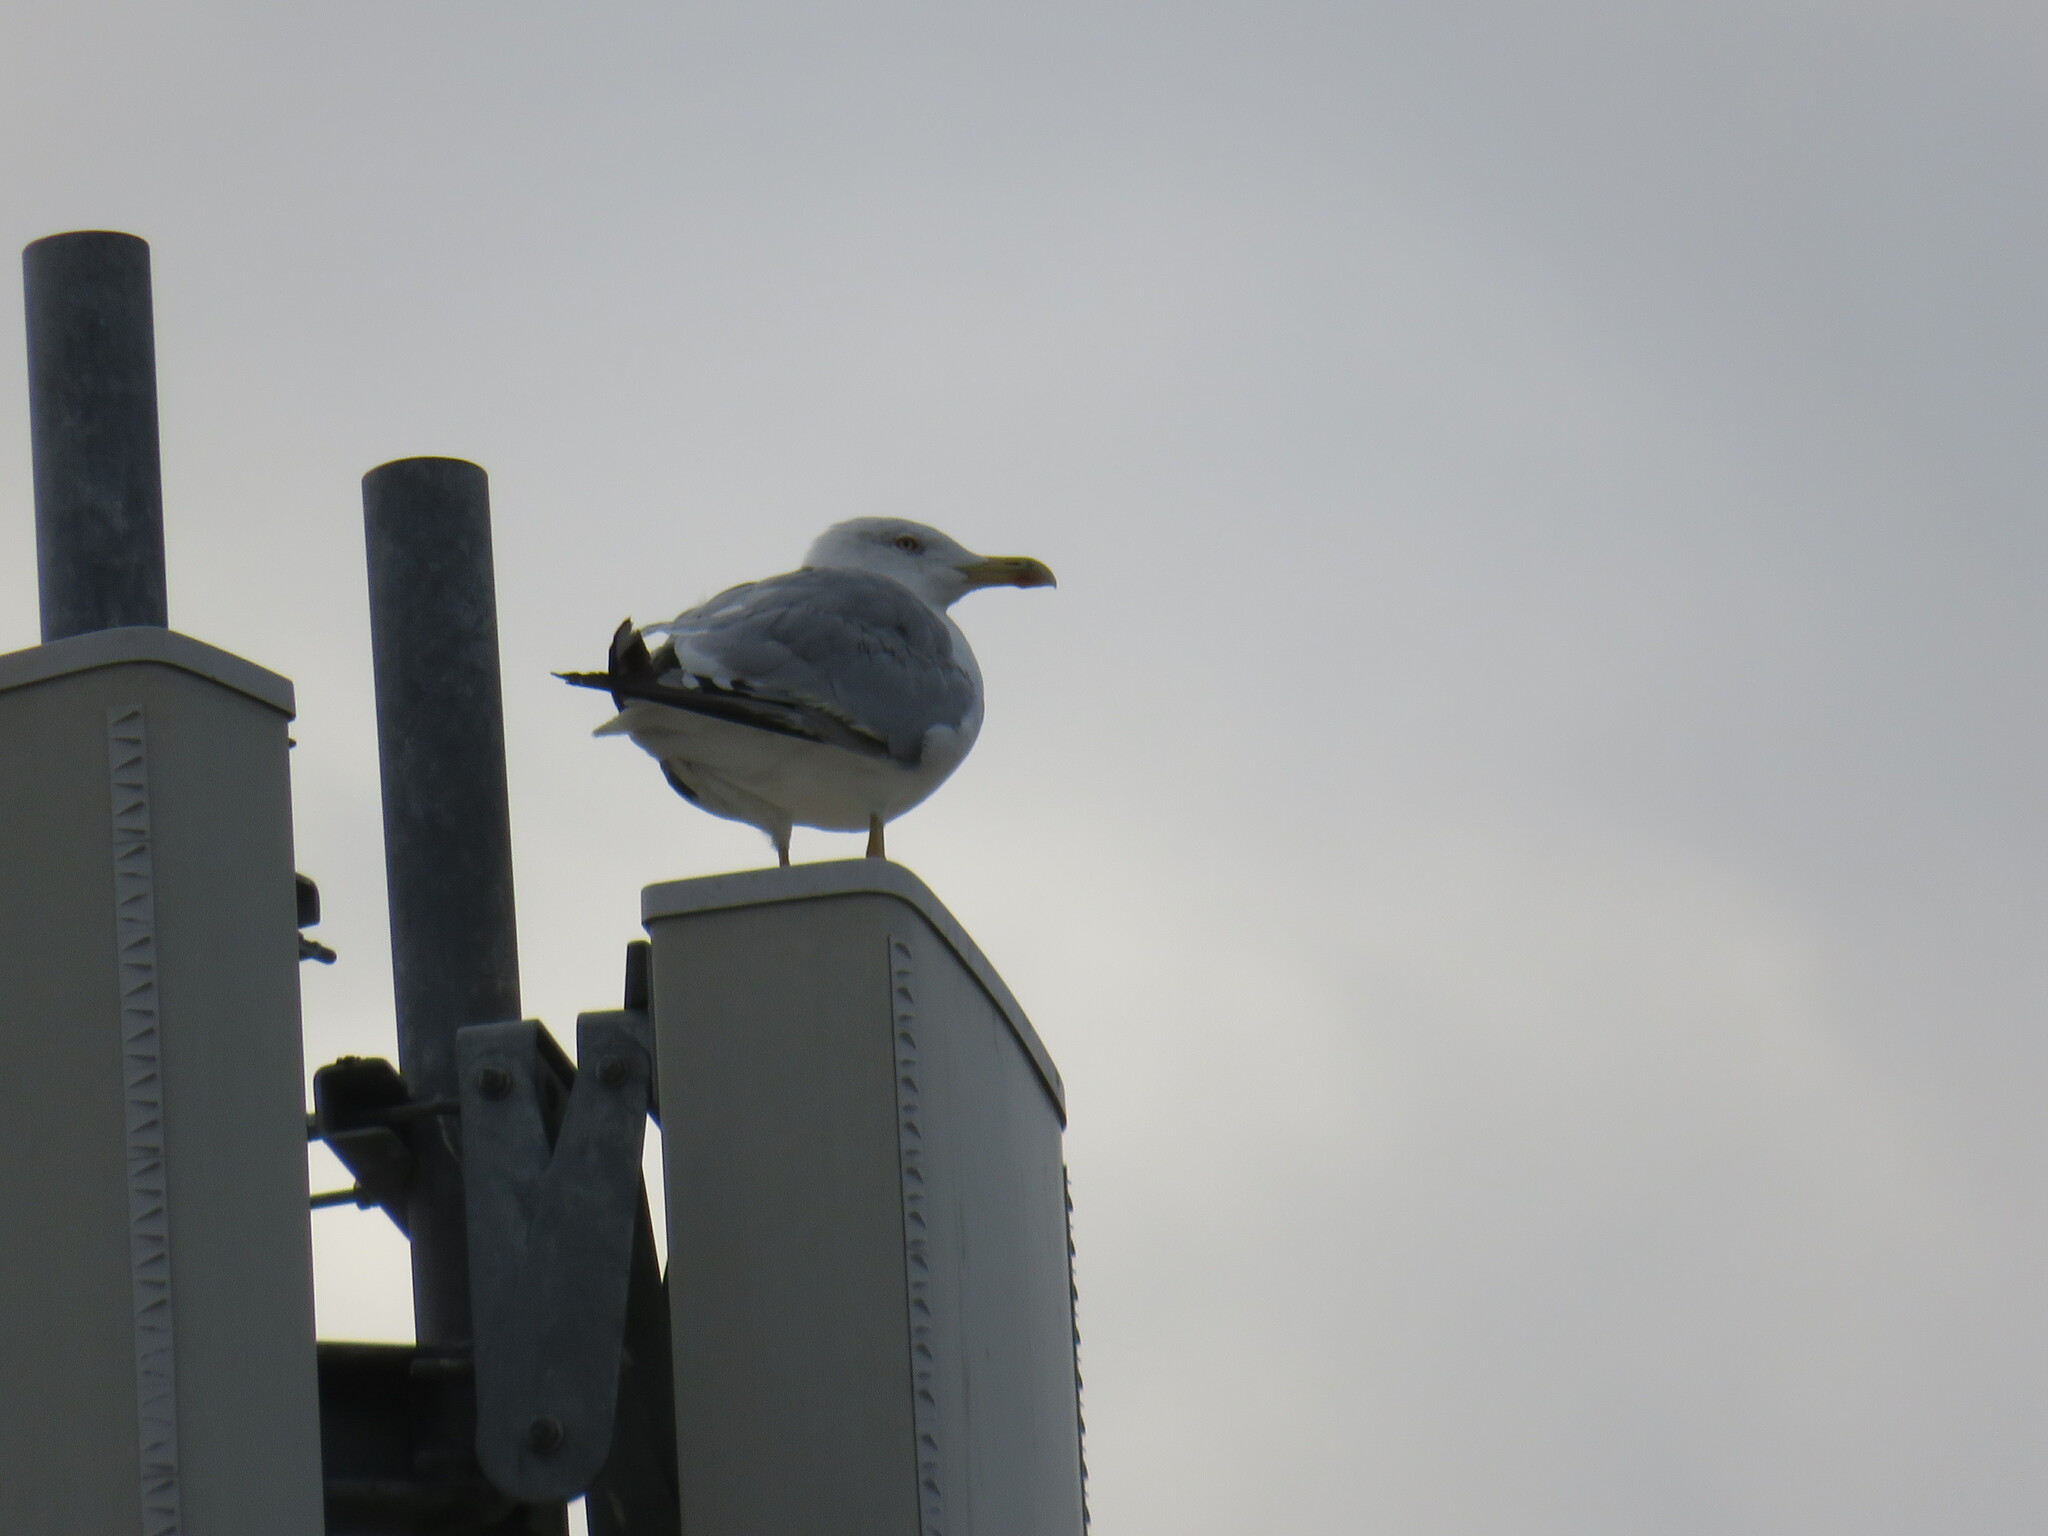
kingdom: Animalia
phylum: Chordata
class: Aves
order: Charadriiformes
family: Laridae
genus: Larus
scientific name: Larus michahellis
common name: Yellow-legged gull
